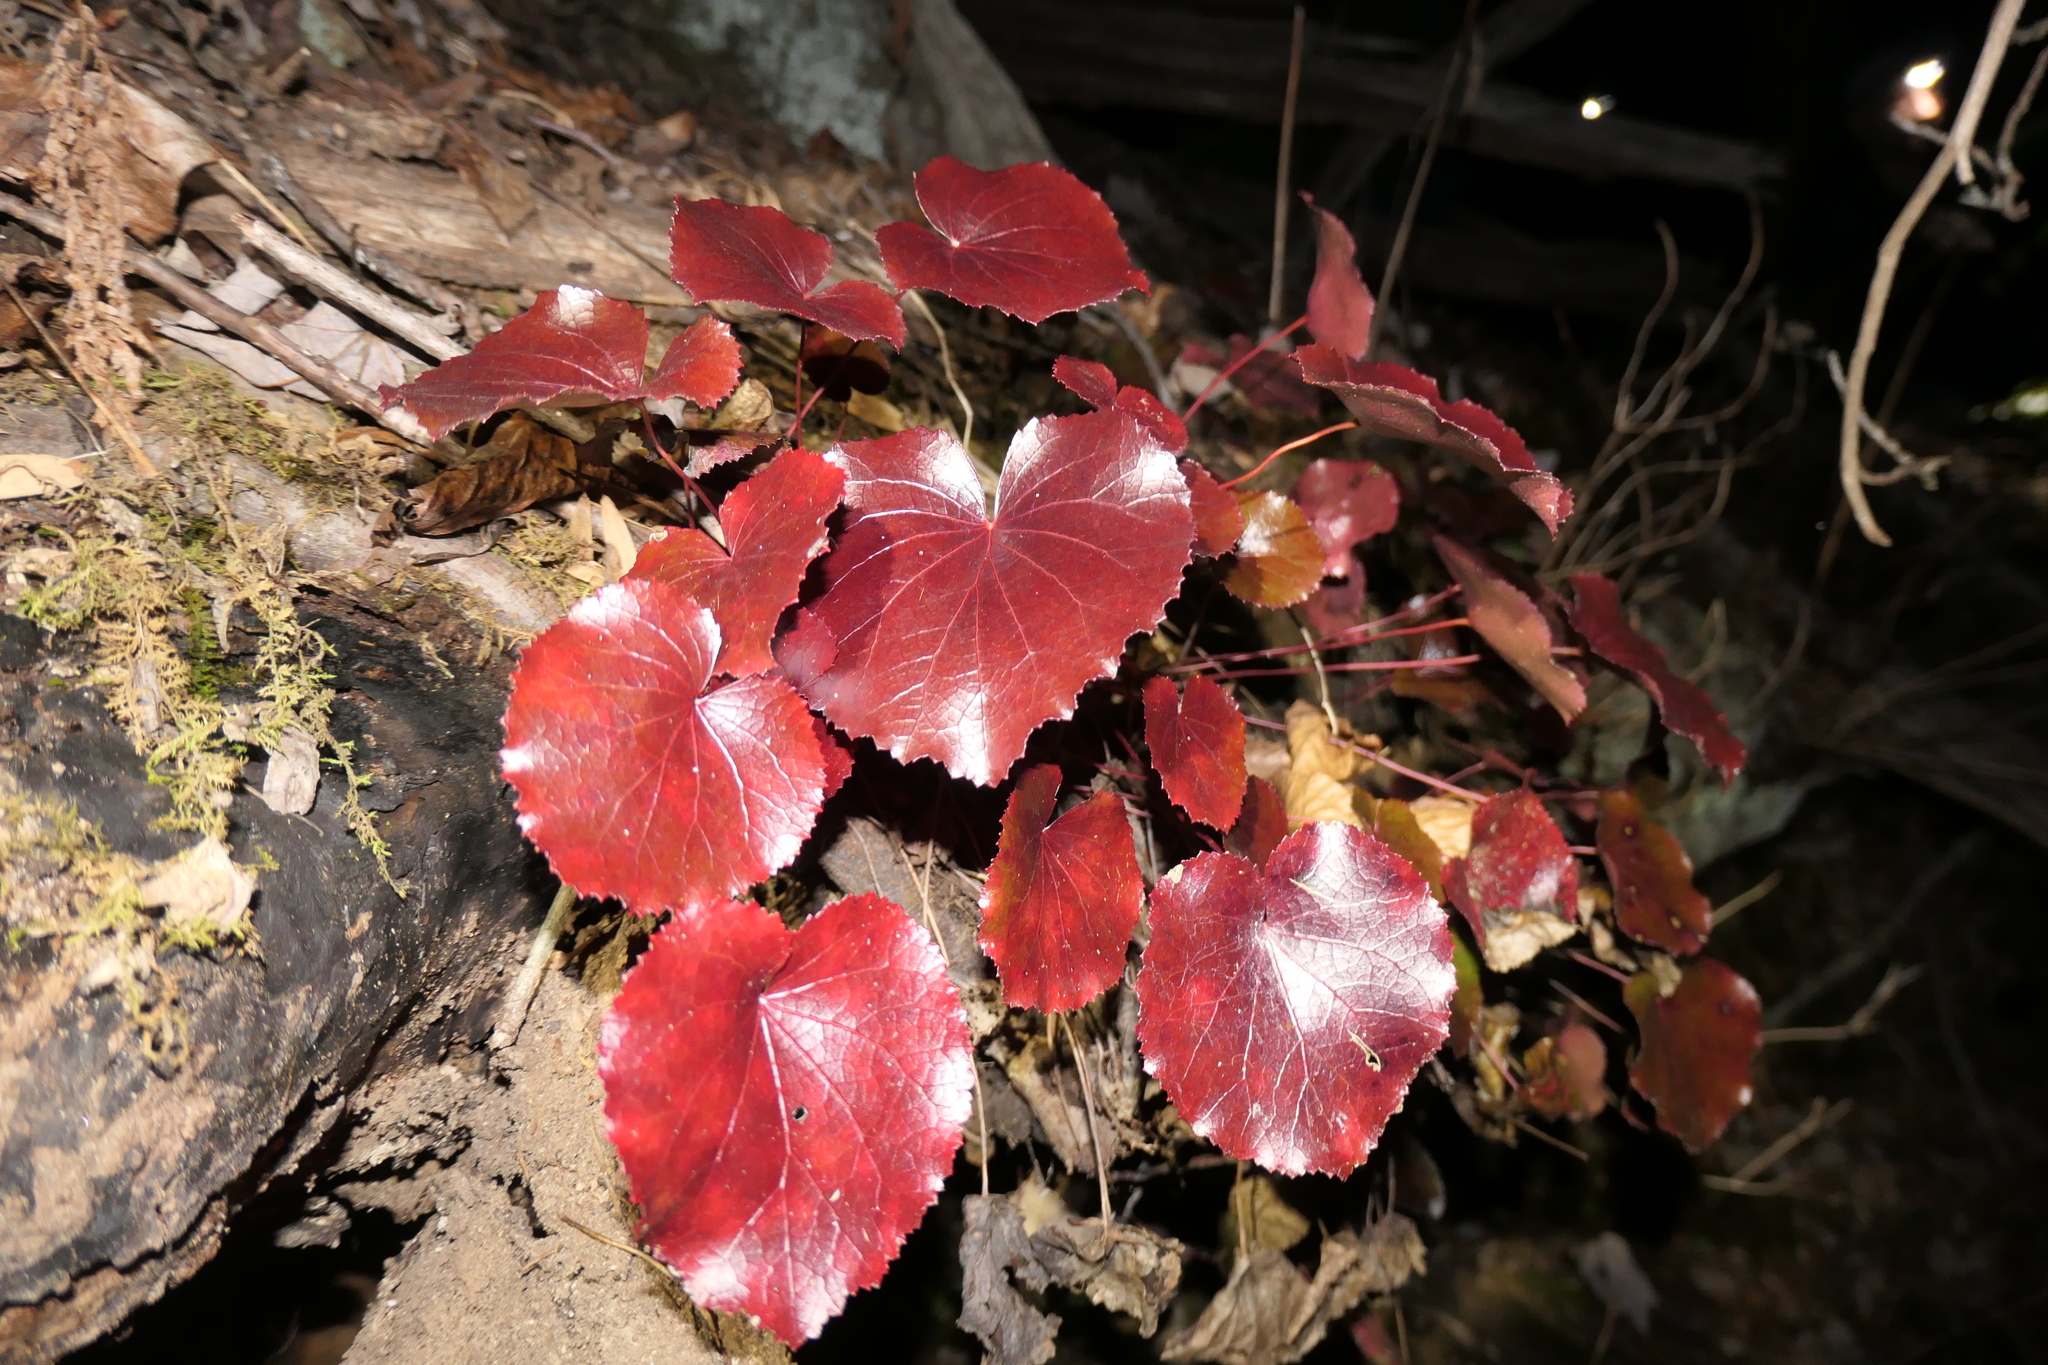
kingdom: Plantae
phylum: Tracheophyta
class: Magnoliopsida
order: Ericales
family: Diapensiaceae
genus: Galax
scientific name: Galax urceolata
